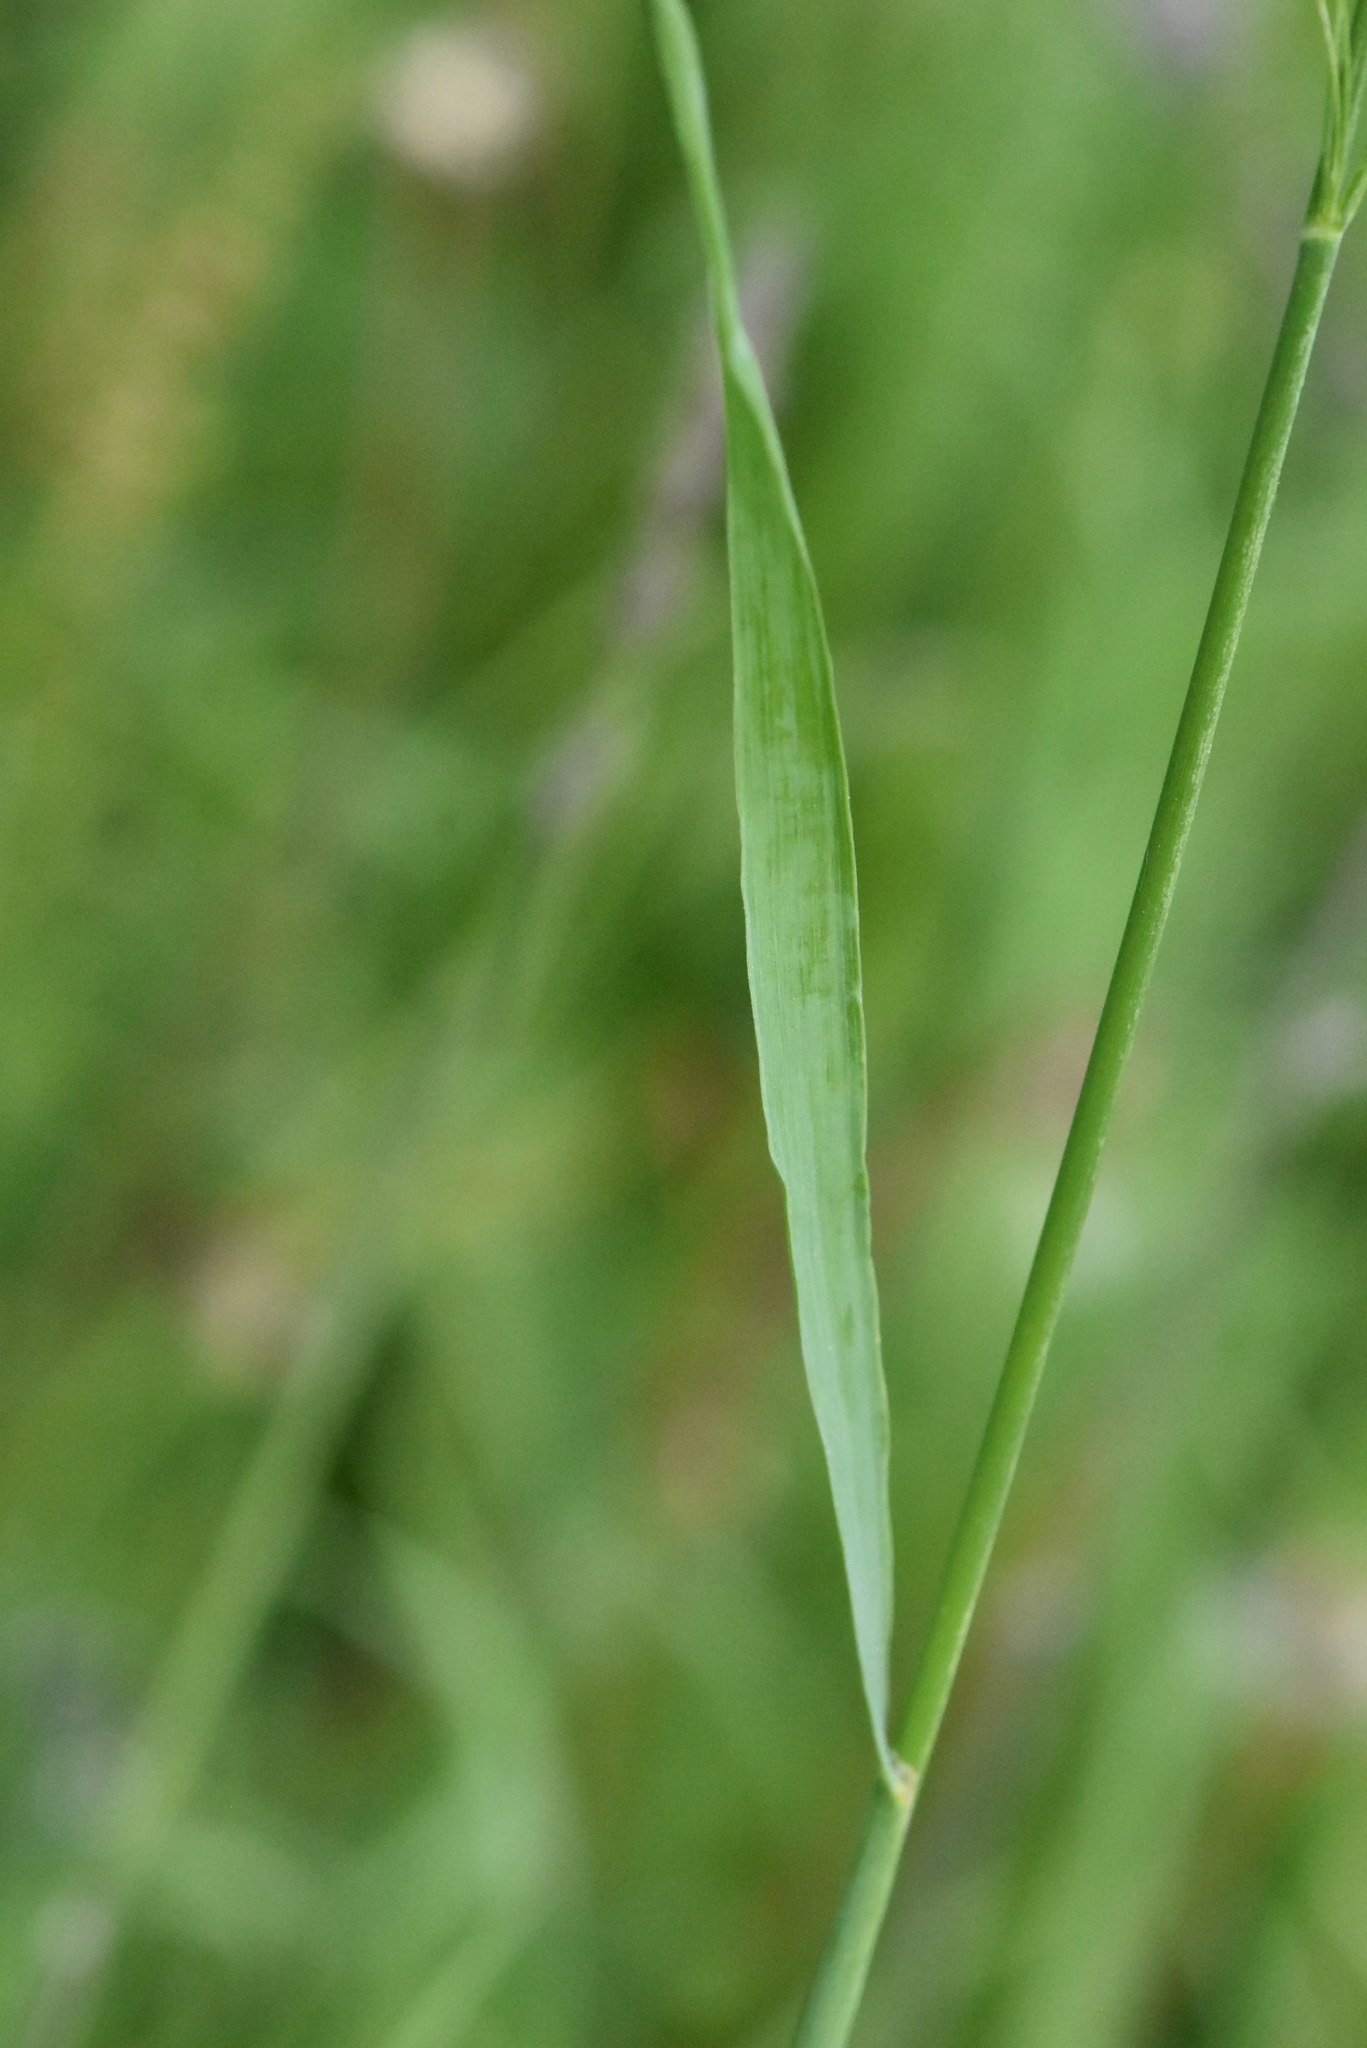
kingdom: Plantae
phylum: Tracheophyta
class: Liliopsida
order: Poales
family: Poaceae
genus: Bromus
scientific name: Bromus inermis
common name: Smooth brome
